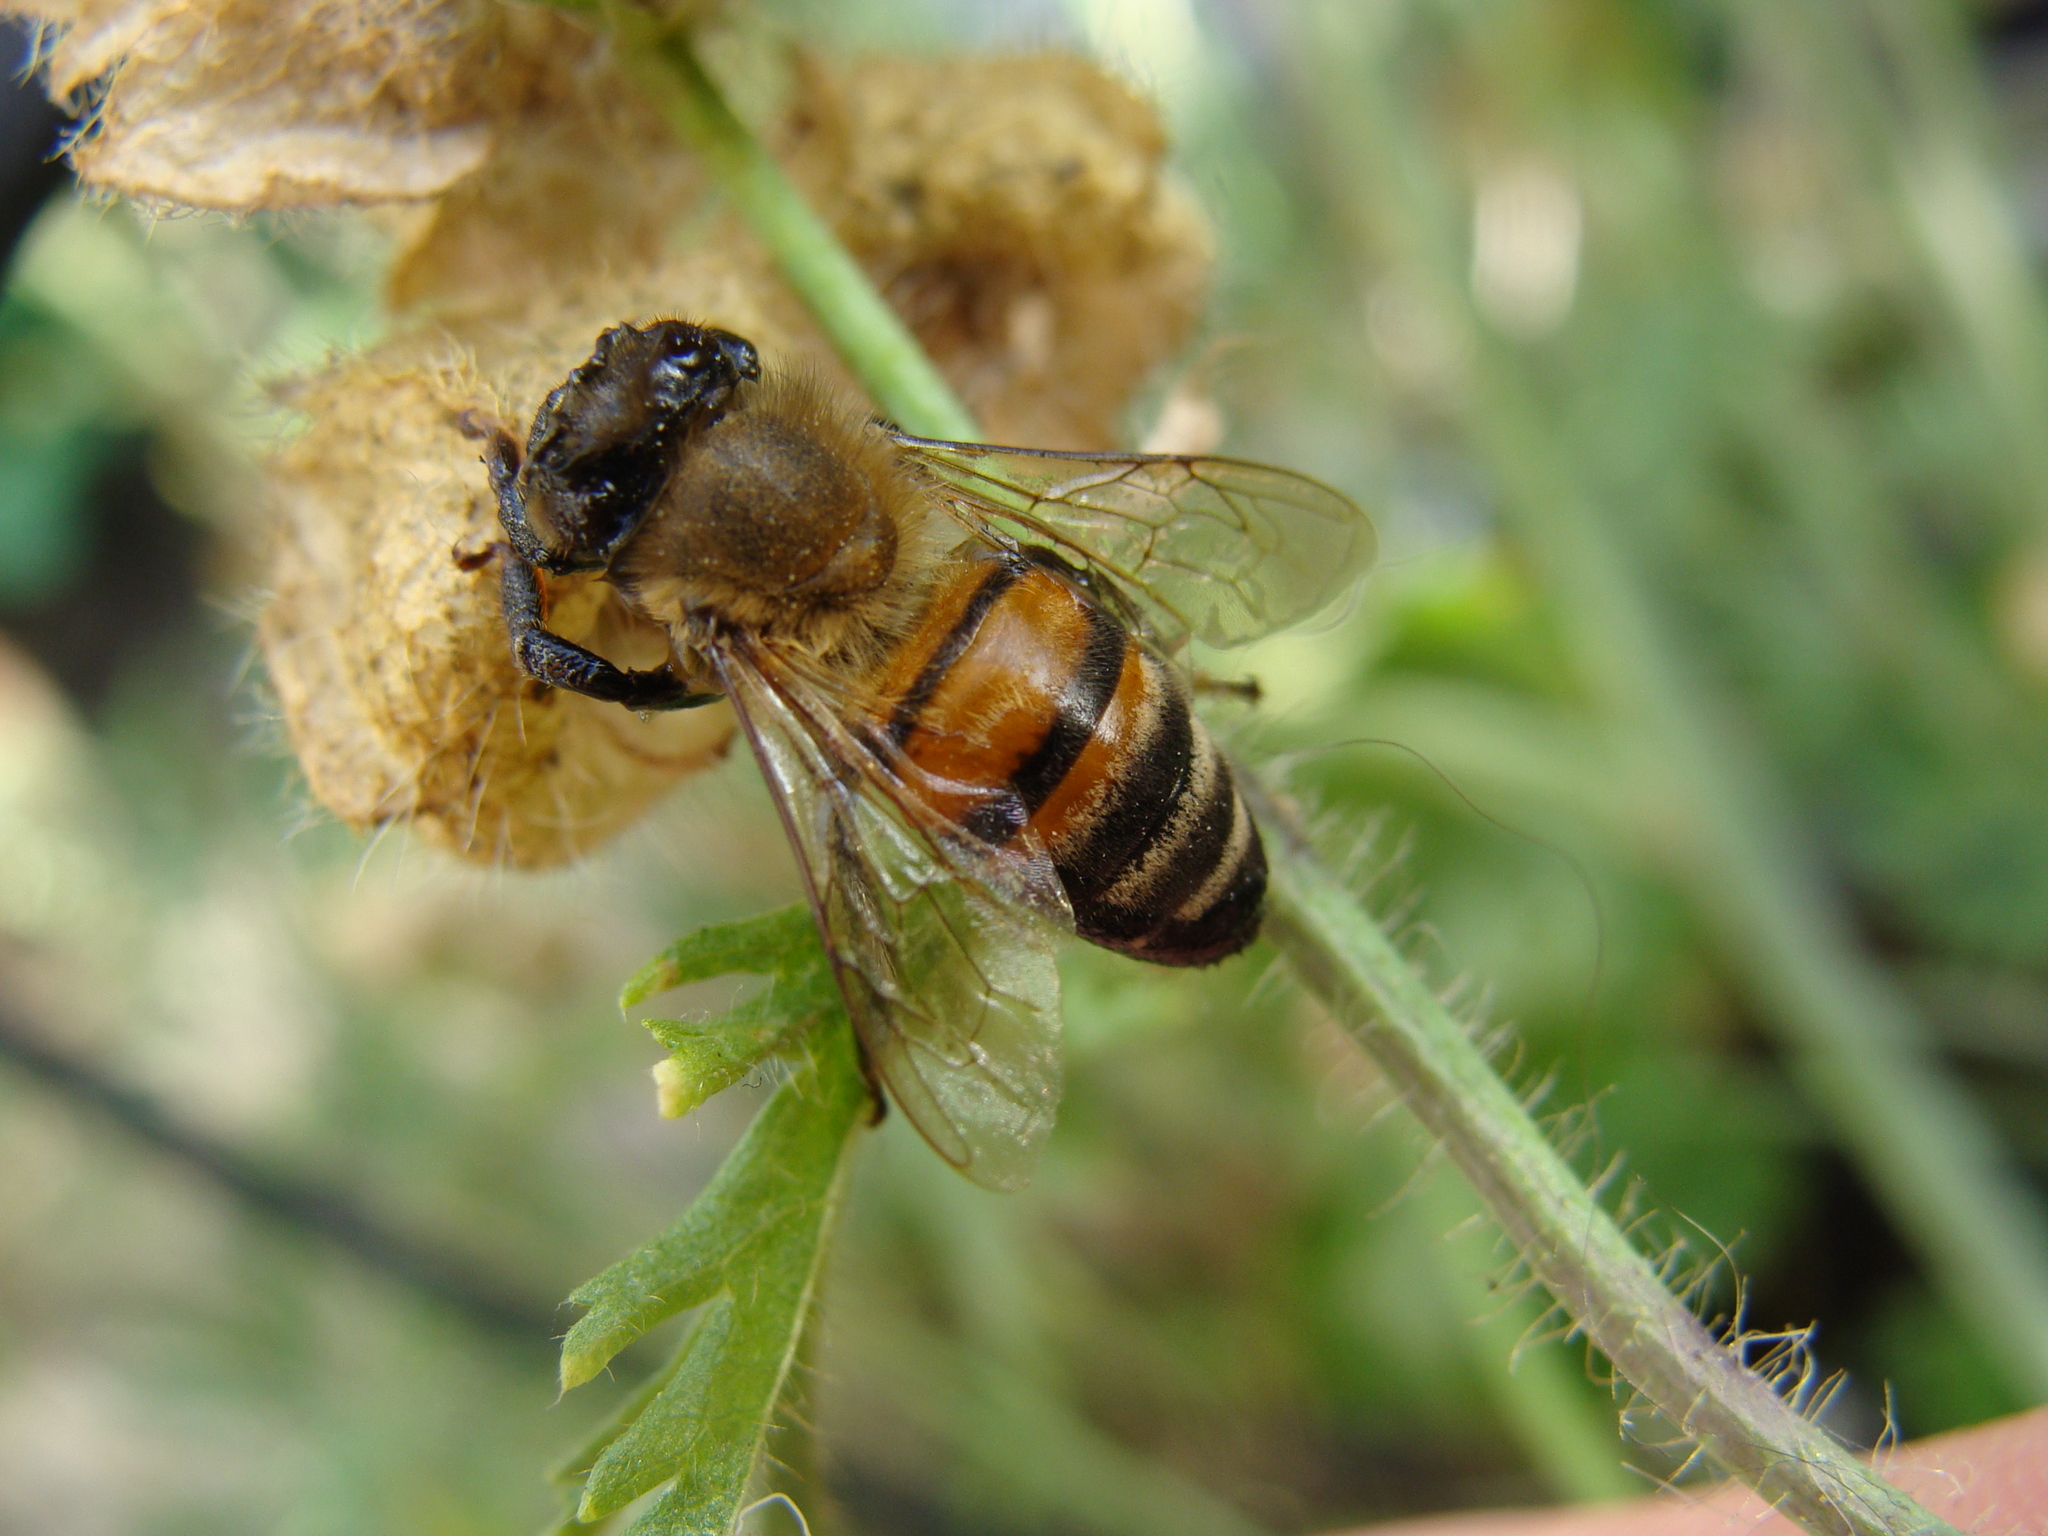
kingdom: Animalia
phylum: Arthropoda
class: Insecta
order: Hymenoptera
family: Apidae
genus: Apis
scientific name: Apis mellifera
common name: Honey bee
